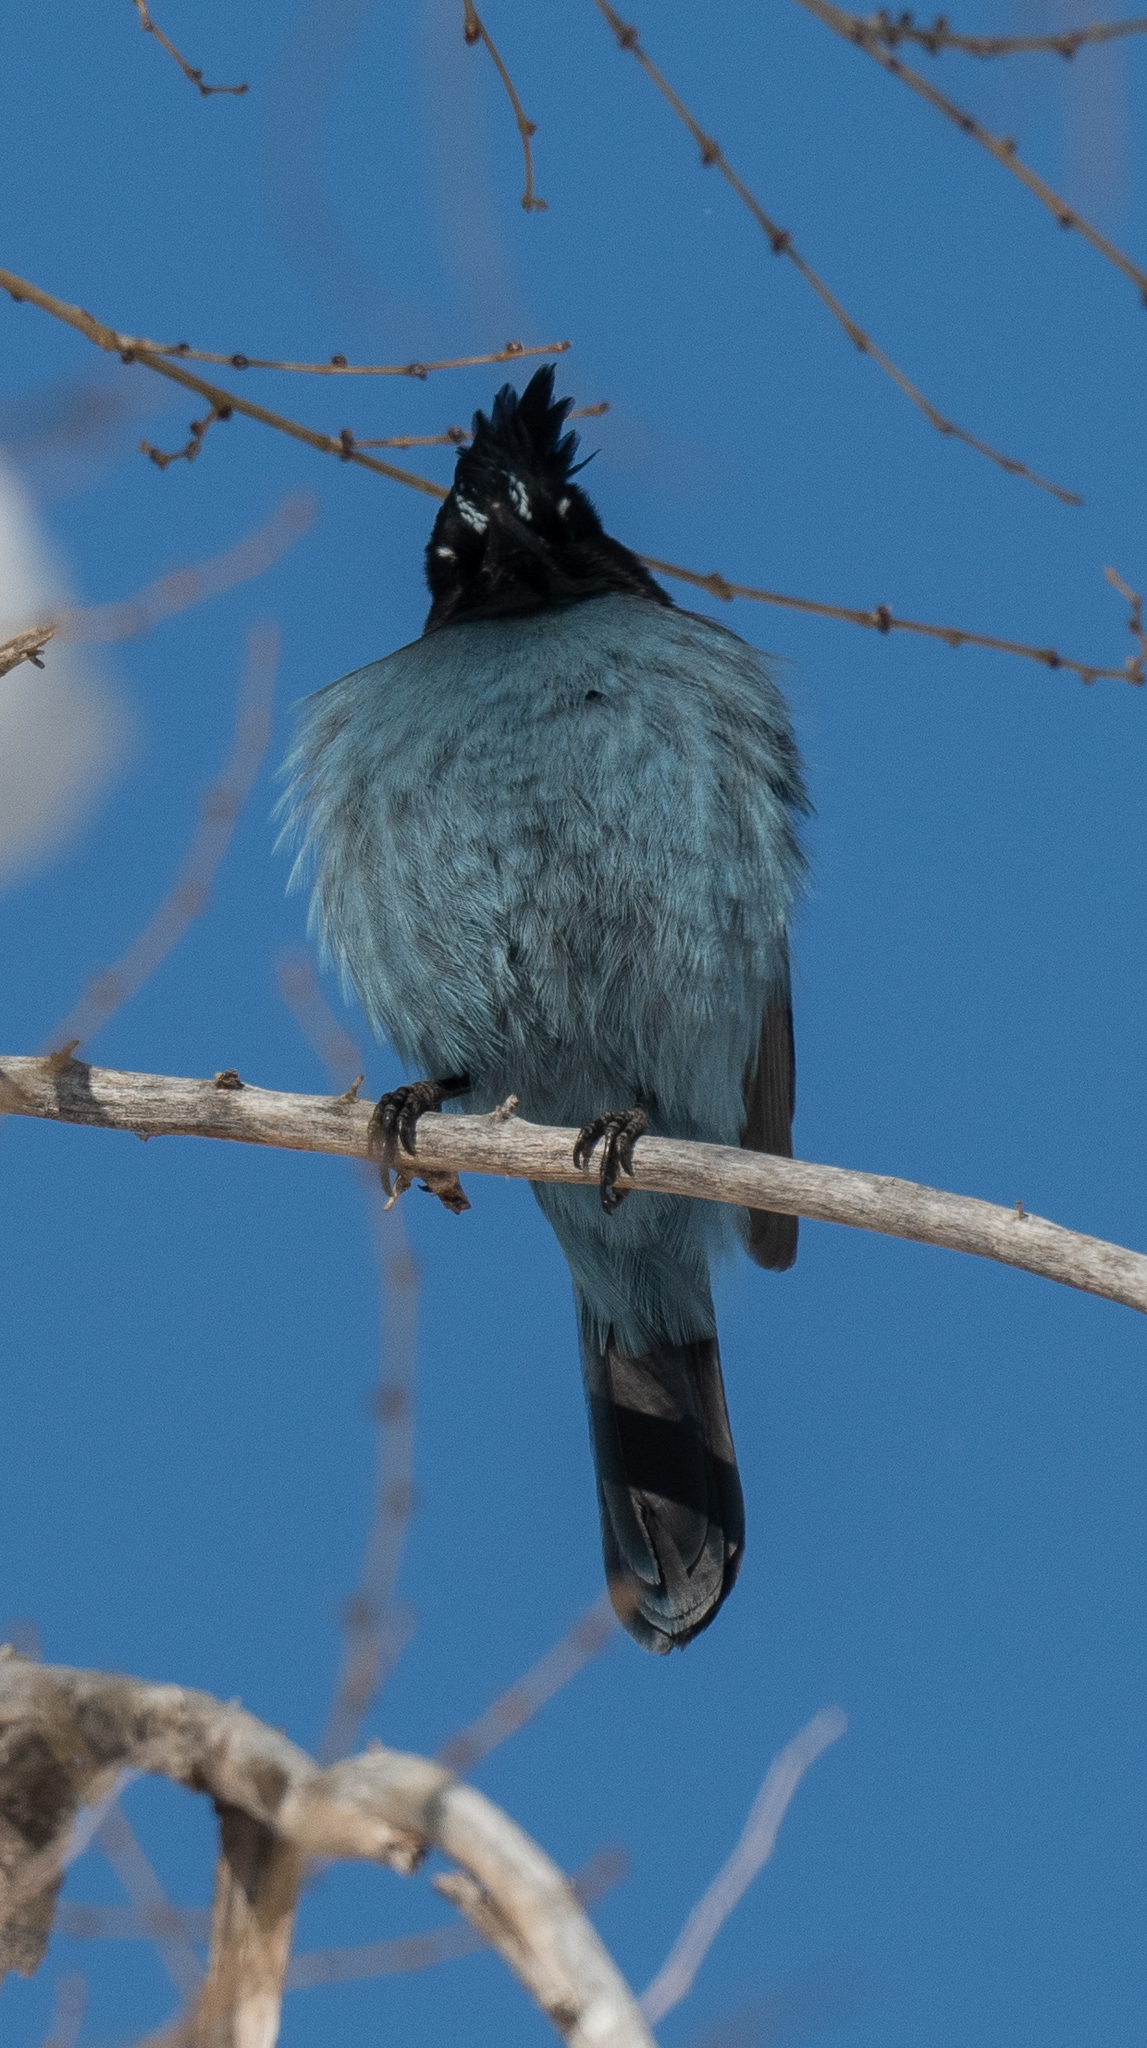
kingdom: Animalia
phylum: Chordata
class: Aves
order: Passeriformes
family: Corvidae
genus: Cyanocitta
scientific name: Cyanocitta stelleri
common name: Steller's jay
